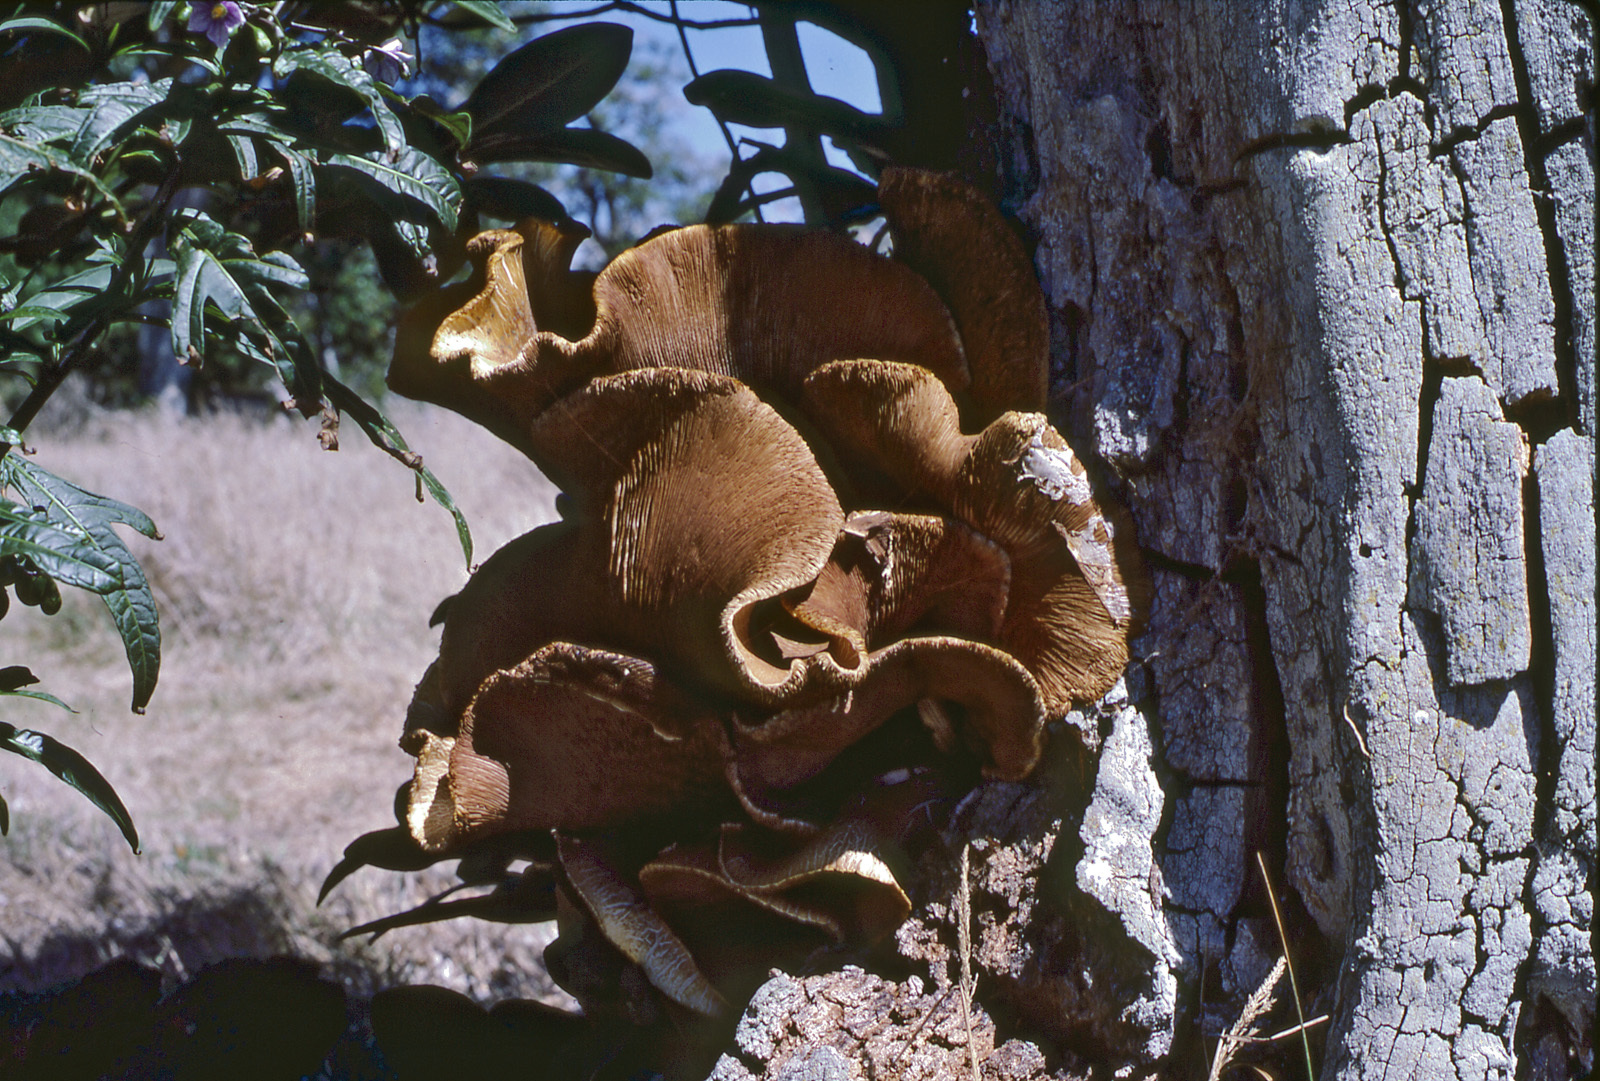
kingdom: Fungi
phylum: Basidiomycota
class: Agaricomycetes
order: Agaricales
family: Tubariaceae
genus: Cyclocybe
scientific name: Cyclocybe parasitica
